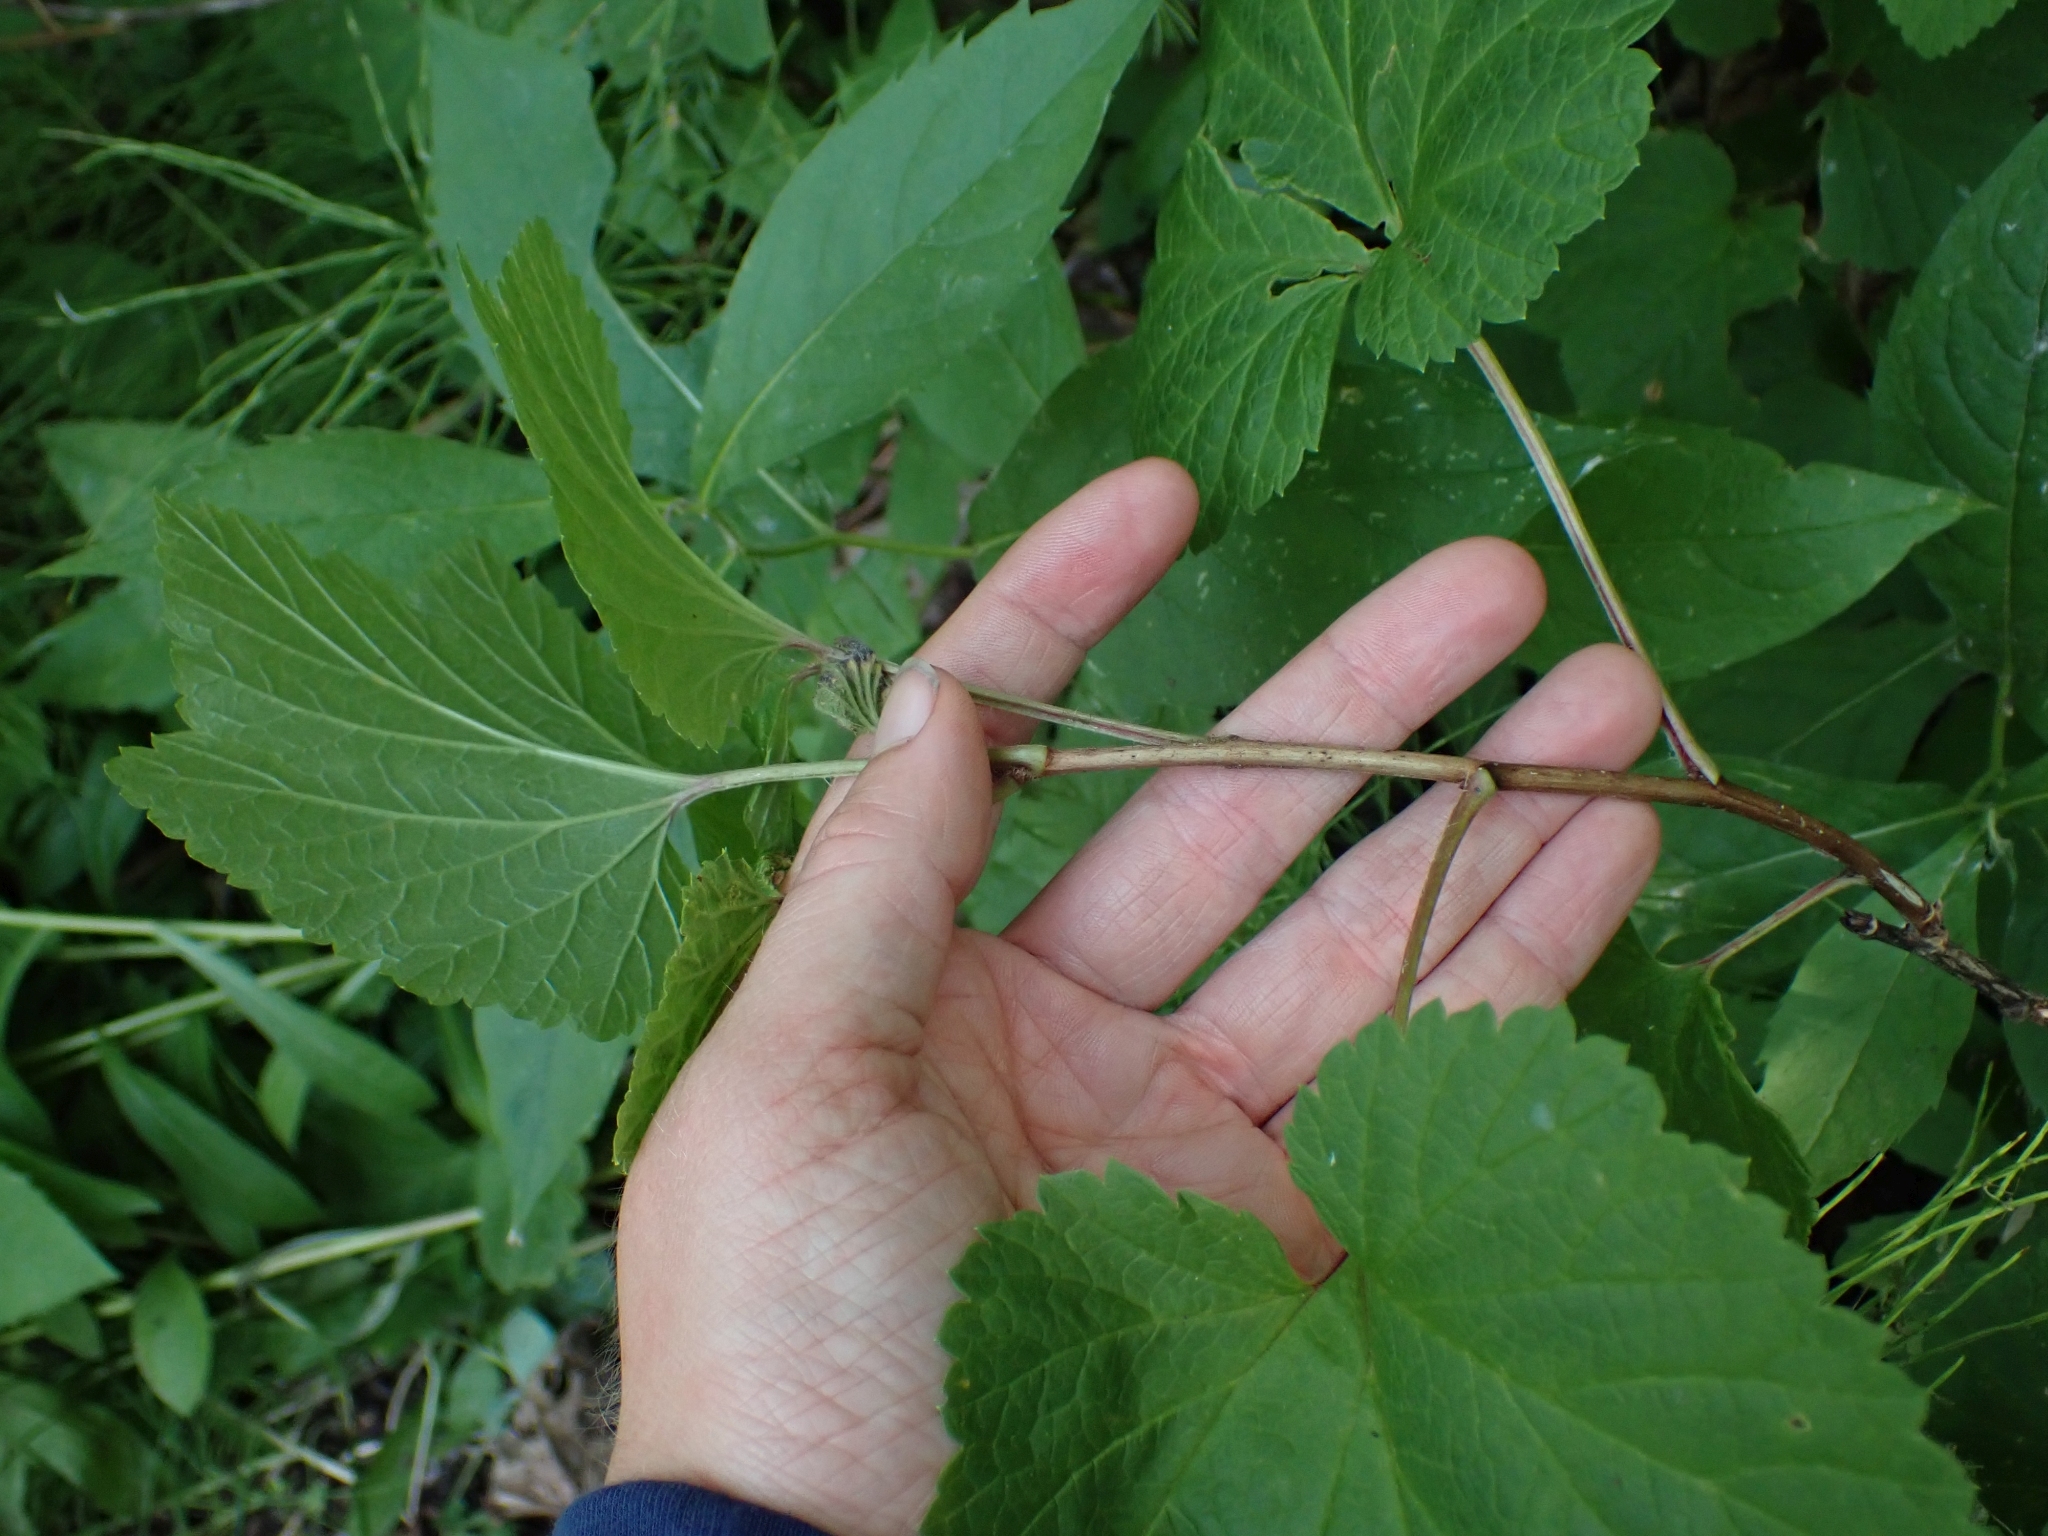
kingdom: Plantae
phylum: Tracheophyta
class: Magnoliopsida
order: Saxifragales
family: Grossulariaceae
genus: Ribes
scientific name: Ribes triste
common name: Swamp red currant
